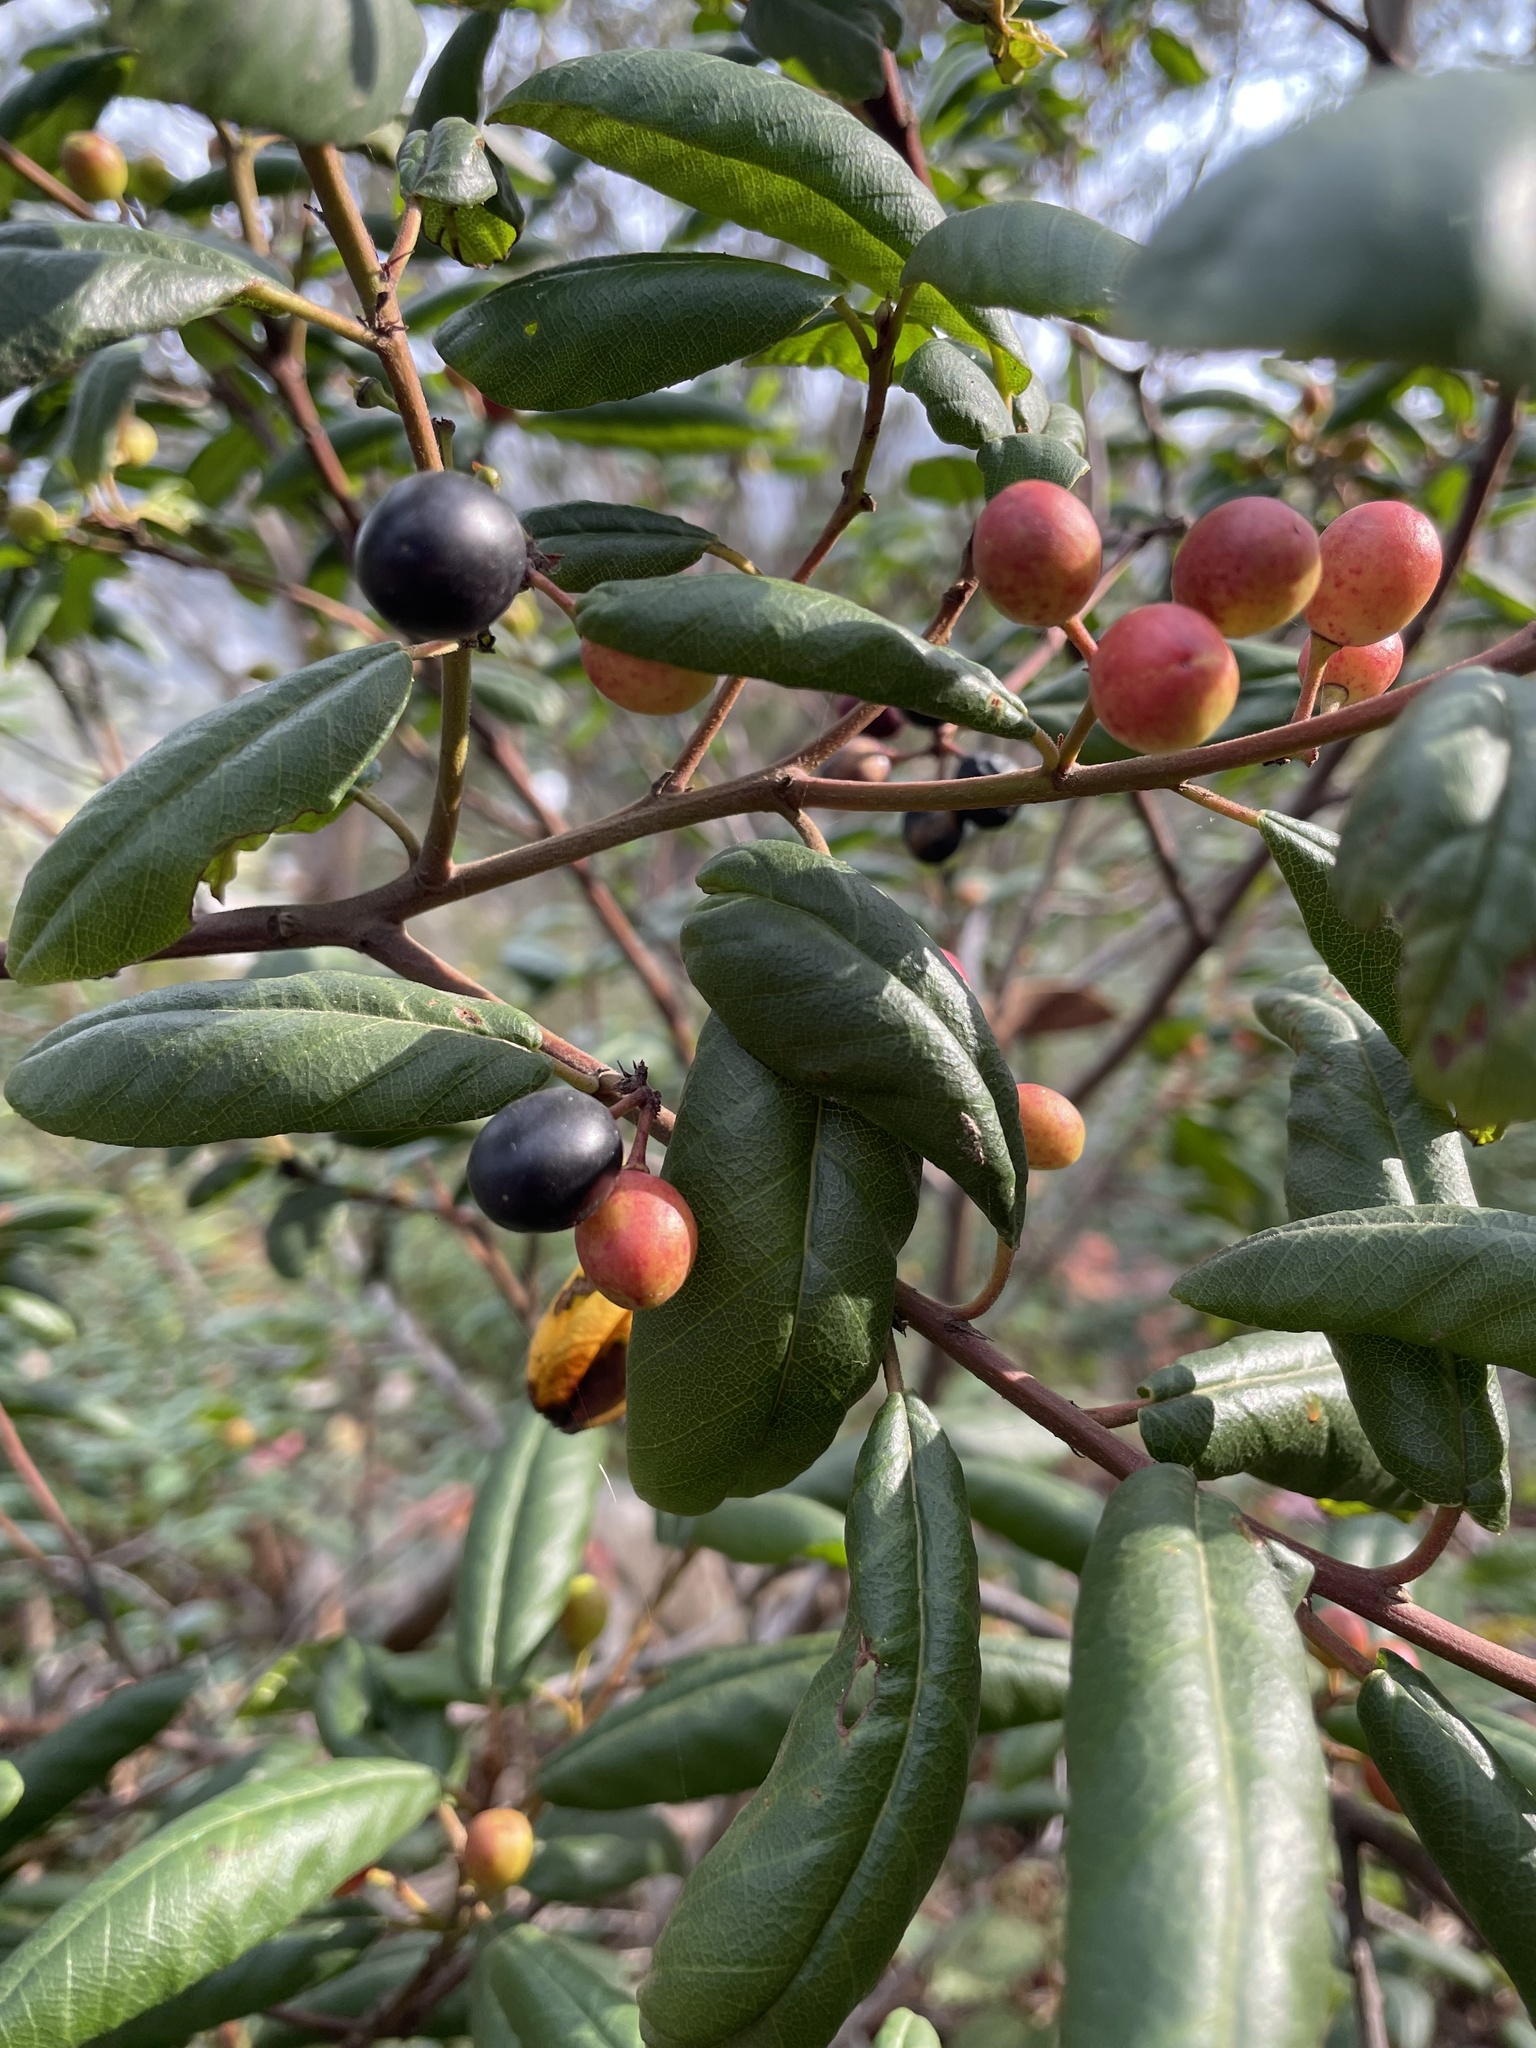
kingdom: Plantae
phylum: Tracheophyta
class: Magnoliopsida
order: Rosales
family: Rhamnaceae
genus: Frangula
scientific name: Frangula californica
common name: California buckthorn
